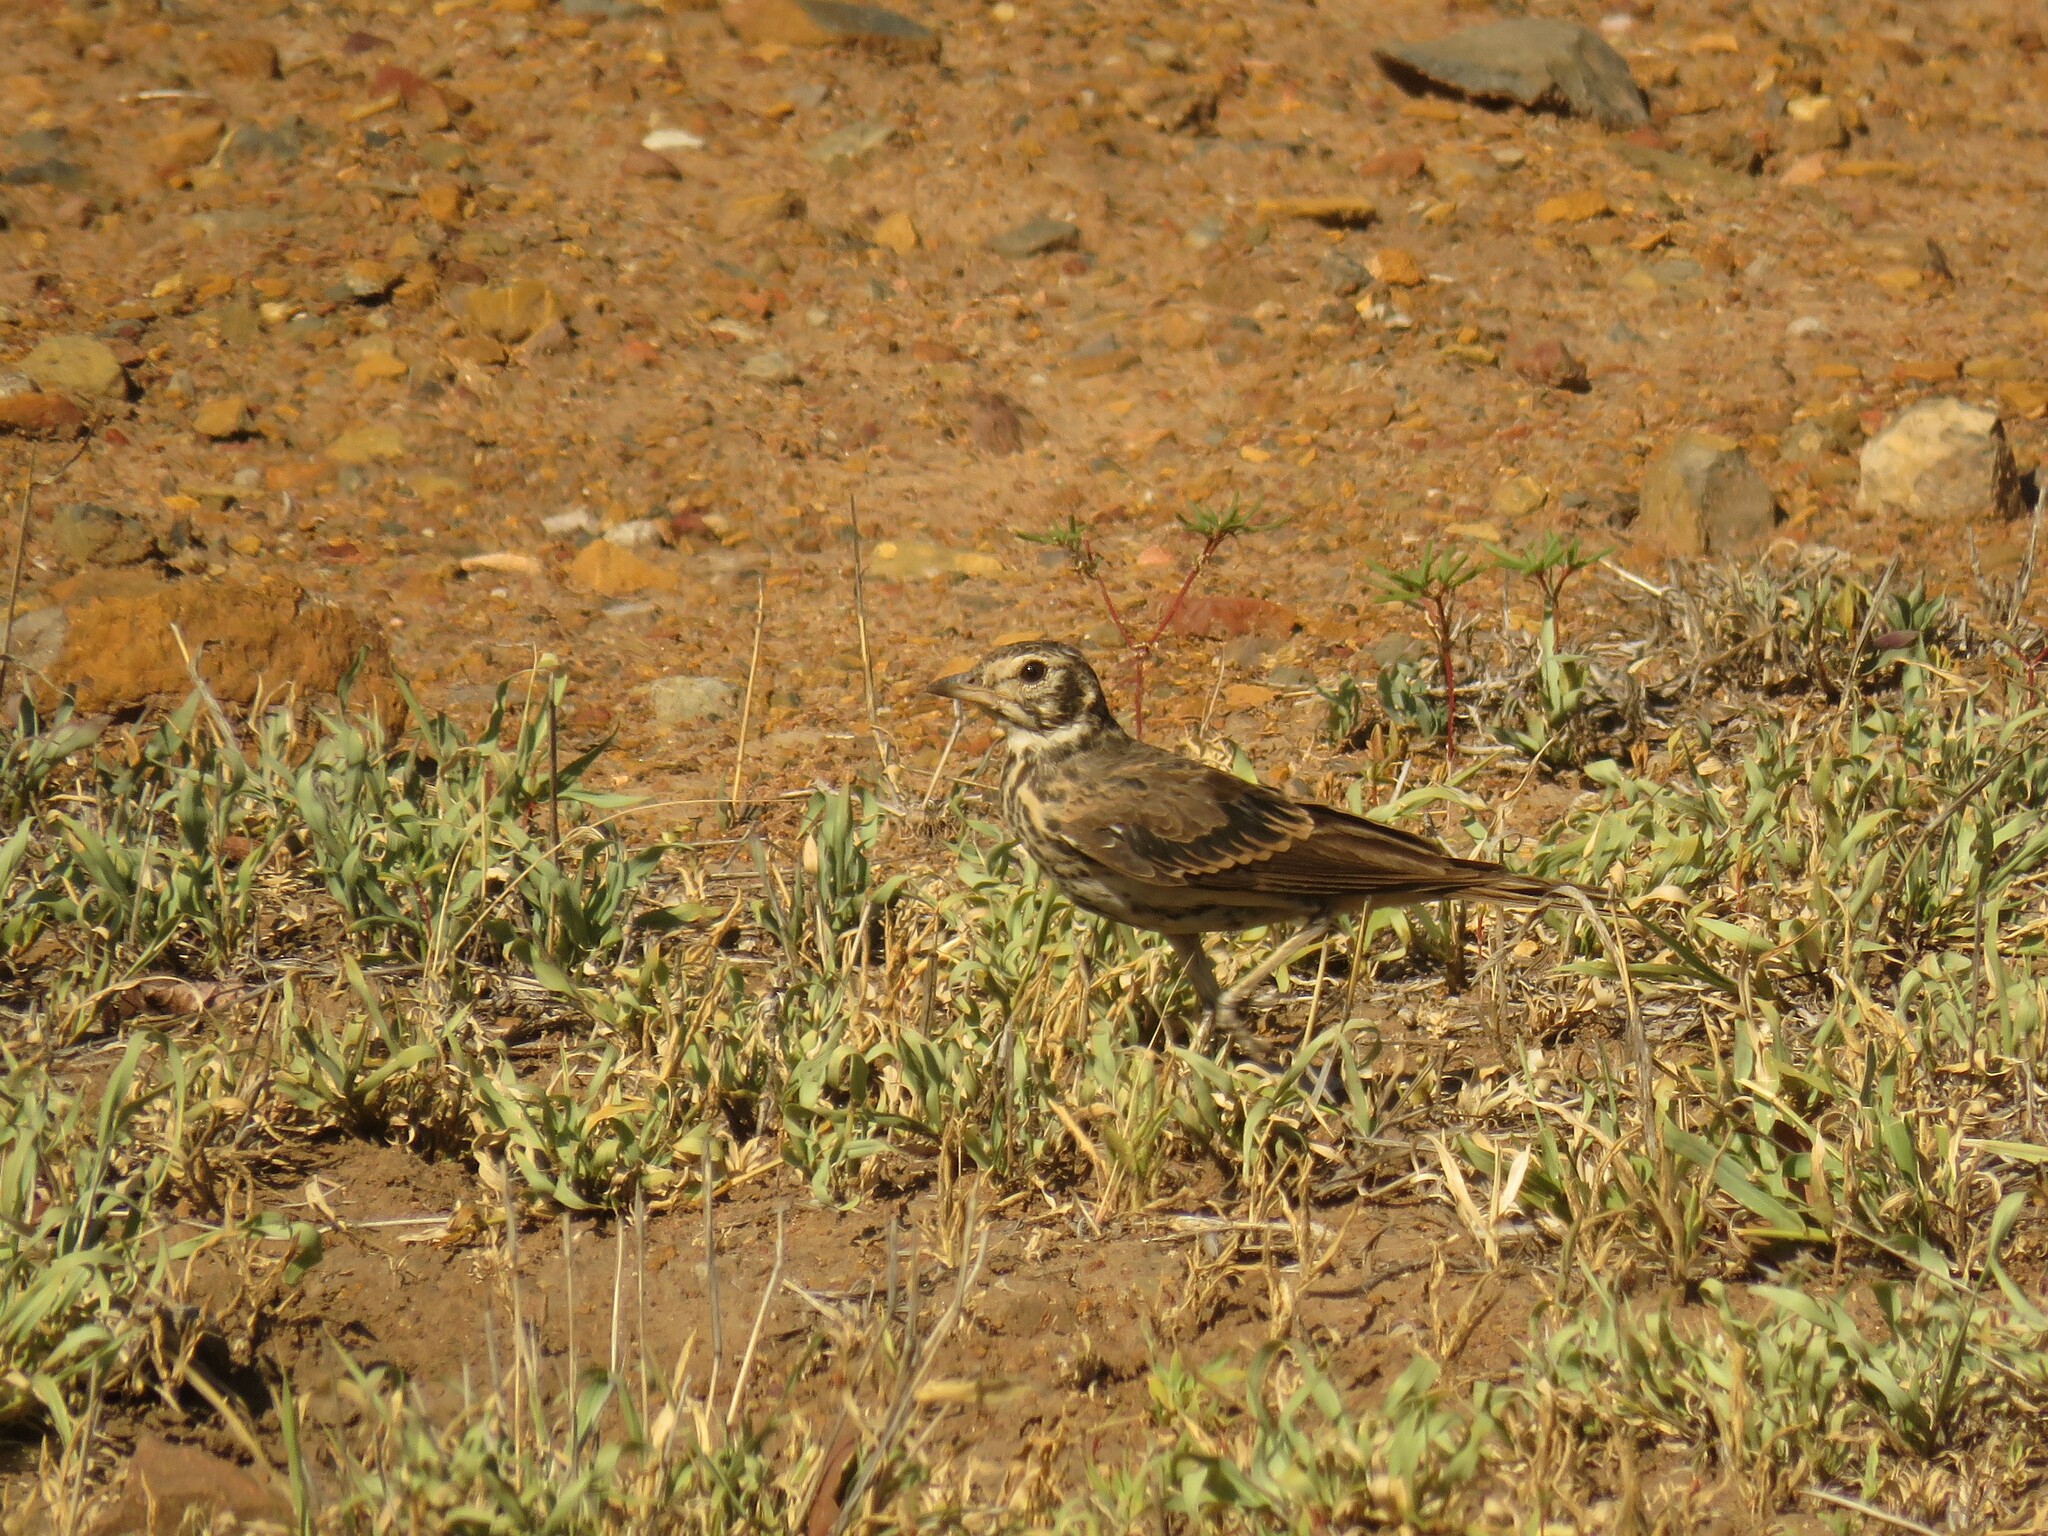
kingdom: Animalia
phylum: Chordata
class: Aves
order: Passeriformes
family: Alaudidae
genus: Pinarocorys
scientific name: Pinarocorys nigricans
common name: Dusky lark
